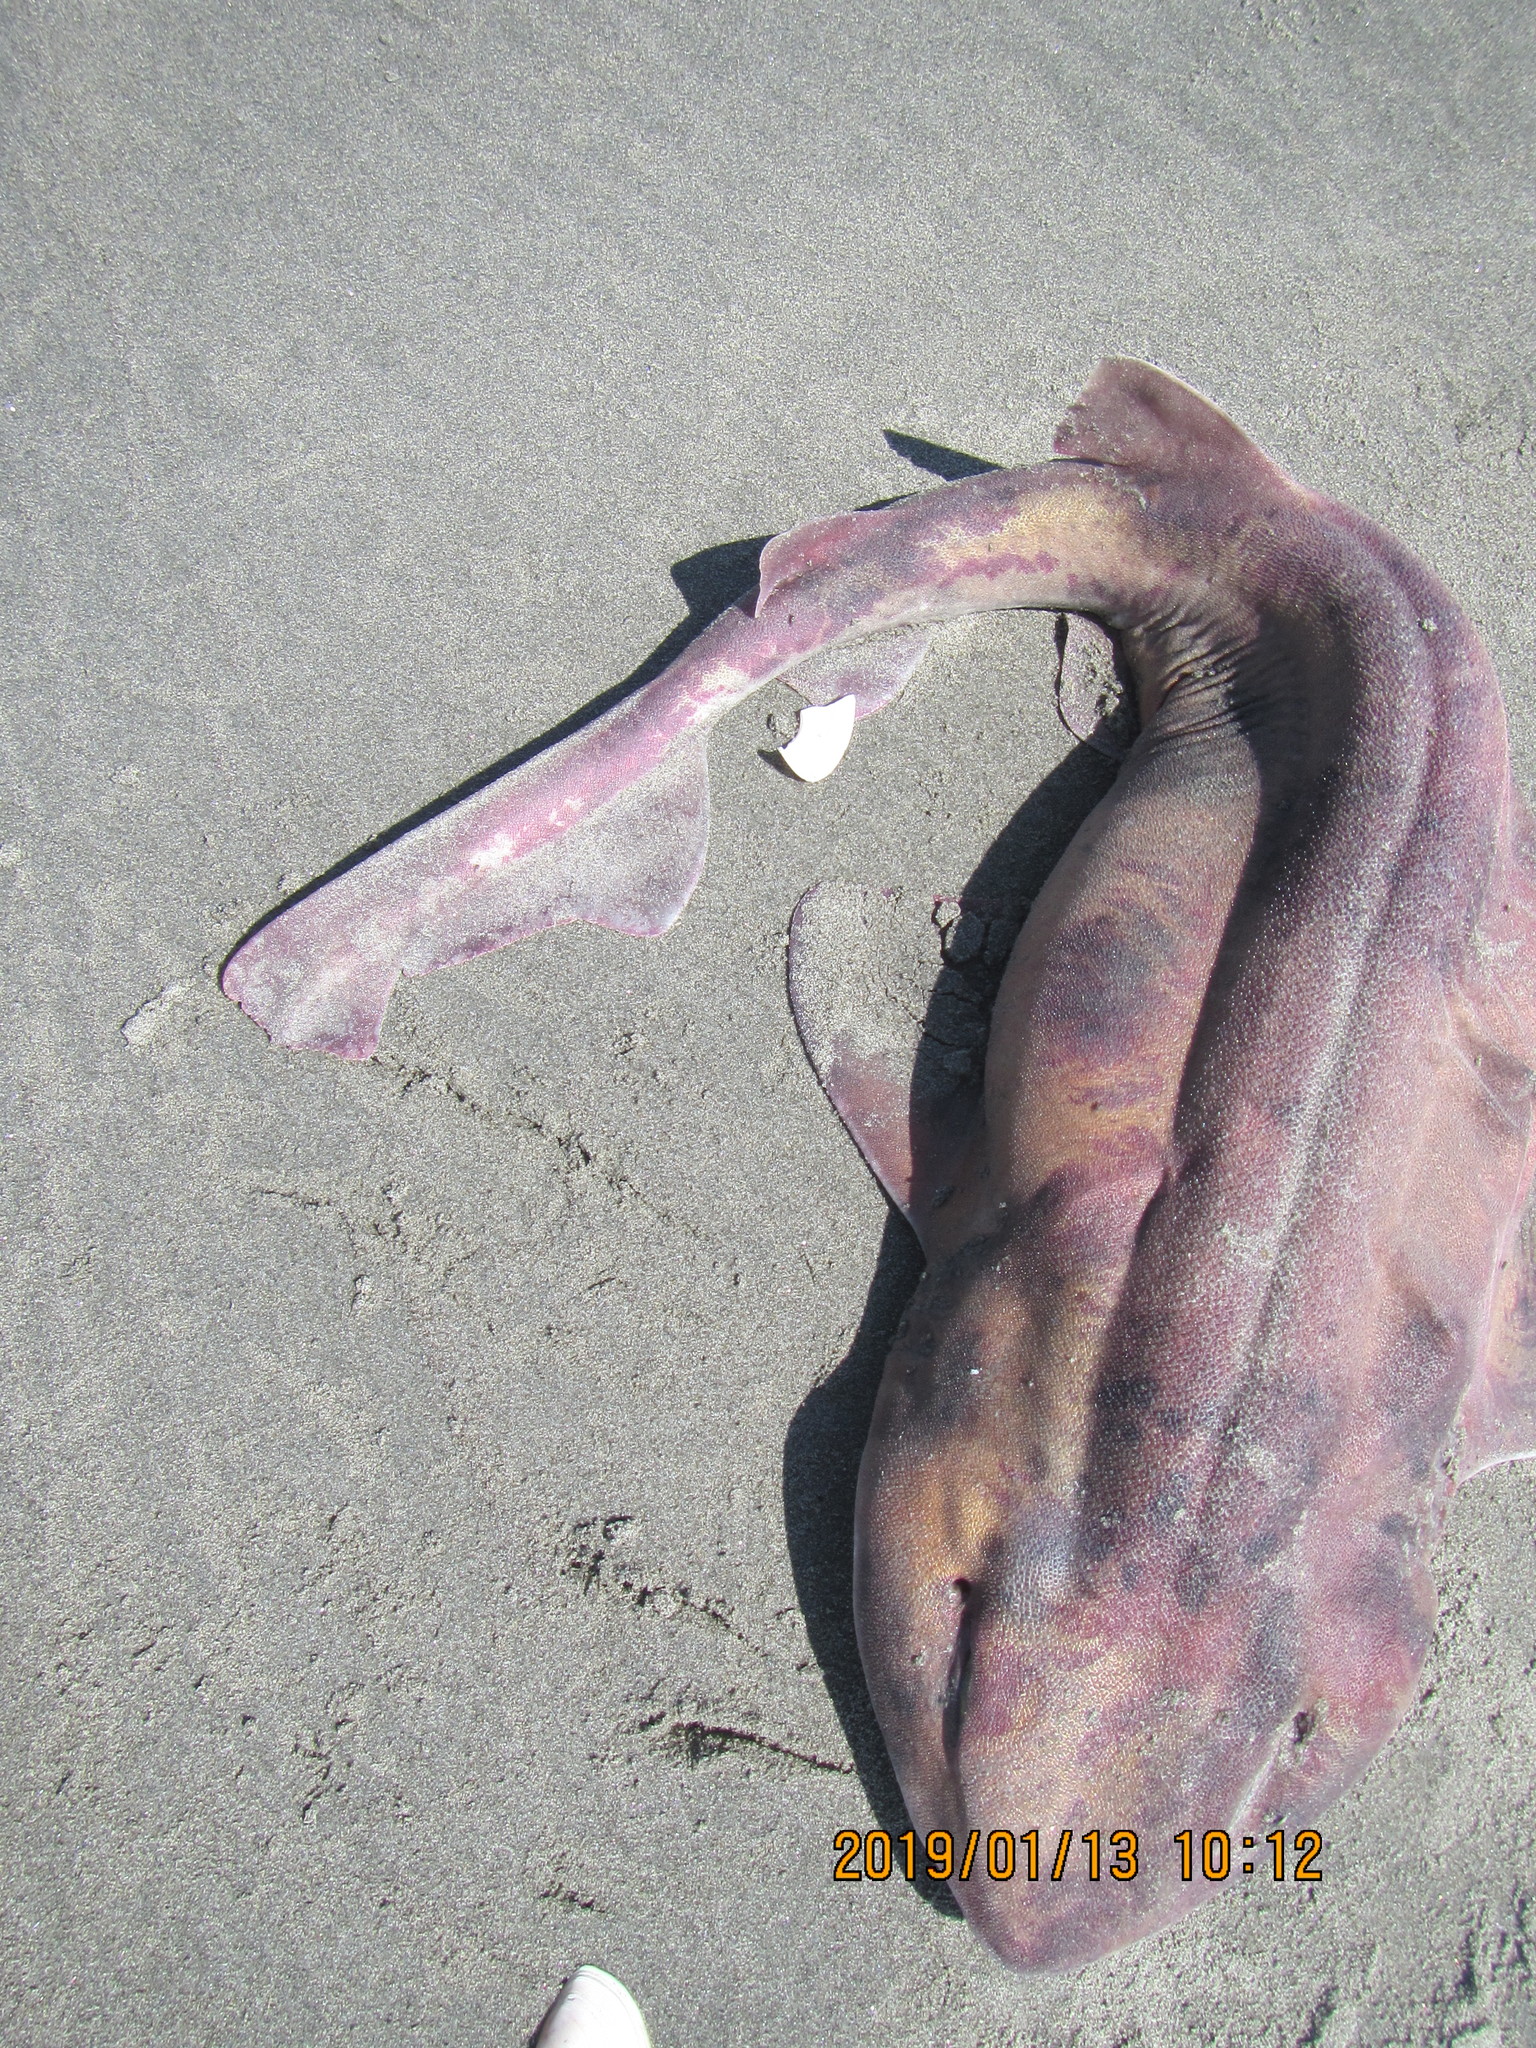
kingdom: Animalia
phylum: Chordata
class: Elasmobranchii
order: Carcharhiniformes
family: Scyliorhinidae
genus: Cephaloscyllium
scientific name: Cephaloscyllium isabellum
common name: Carpet shark
